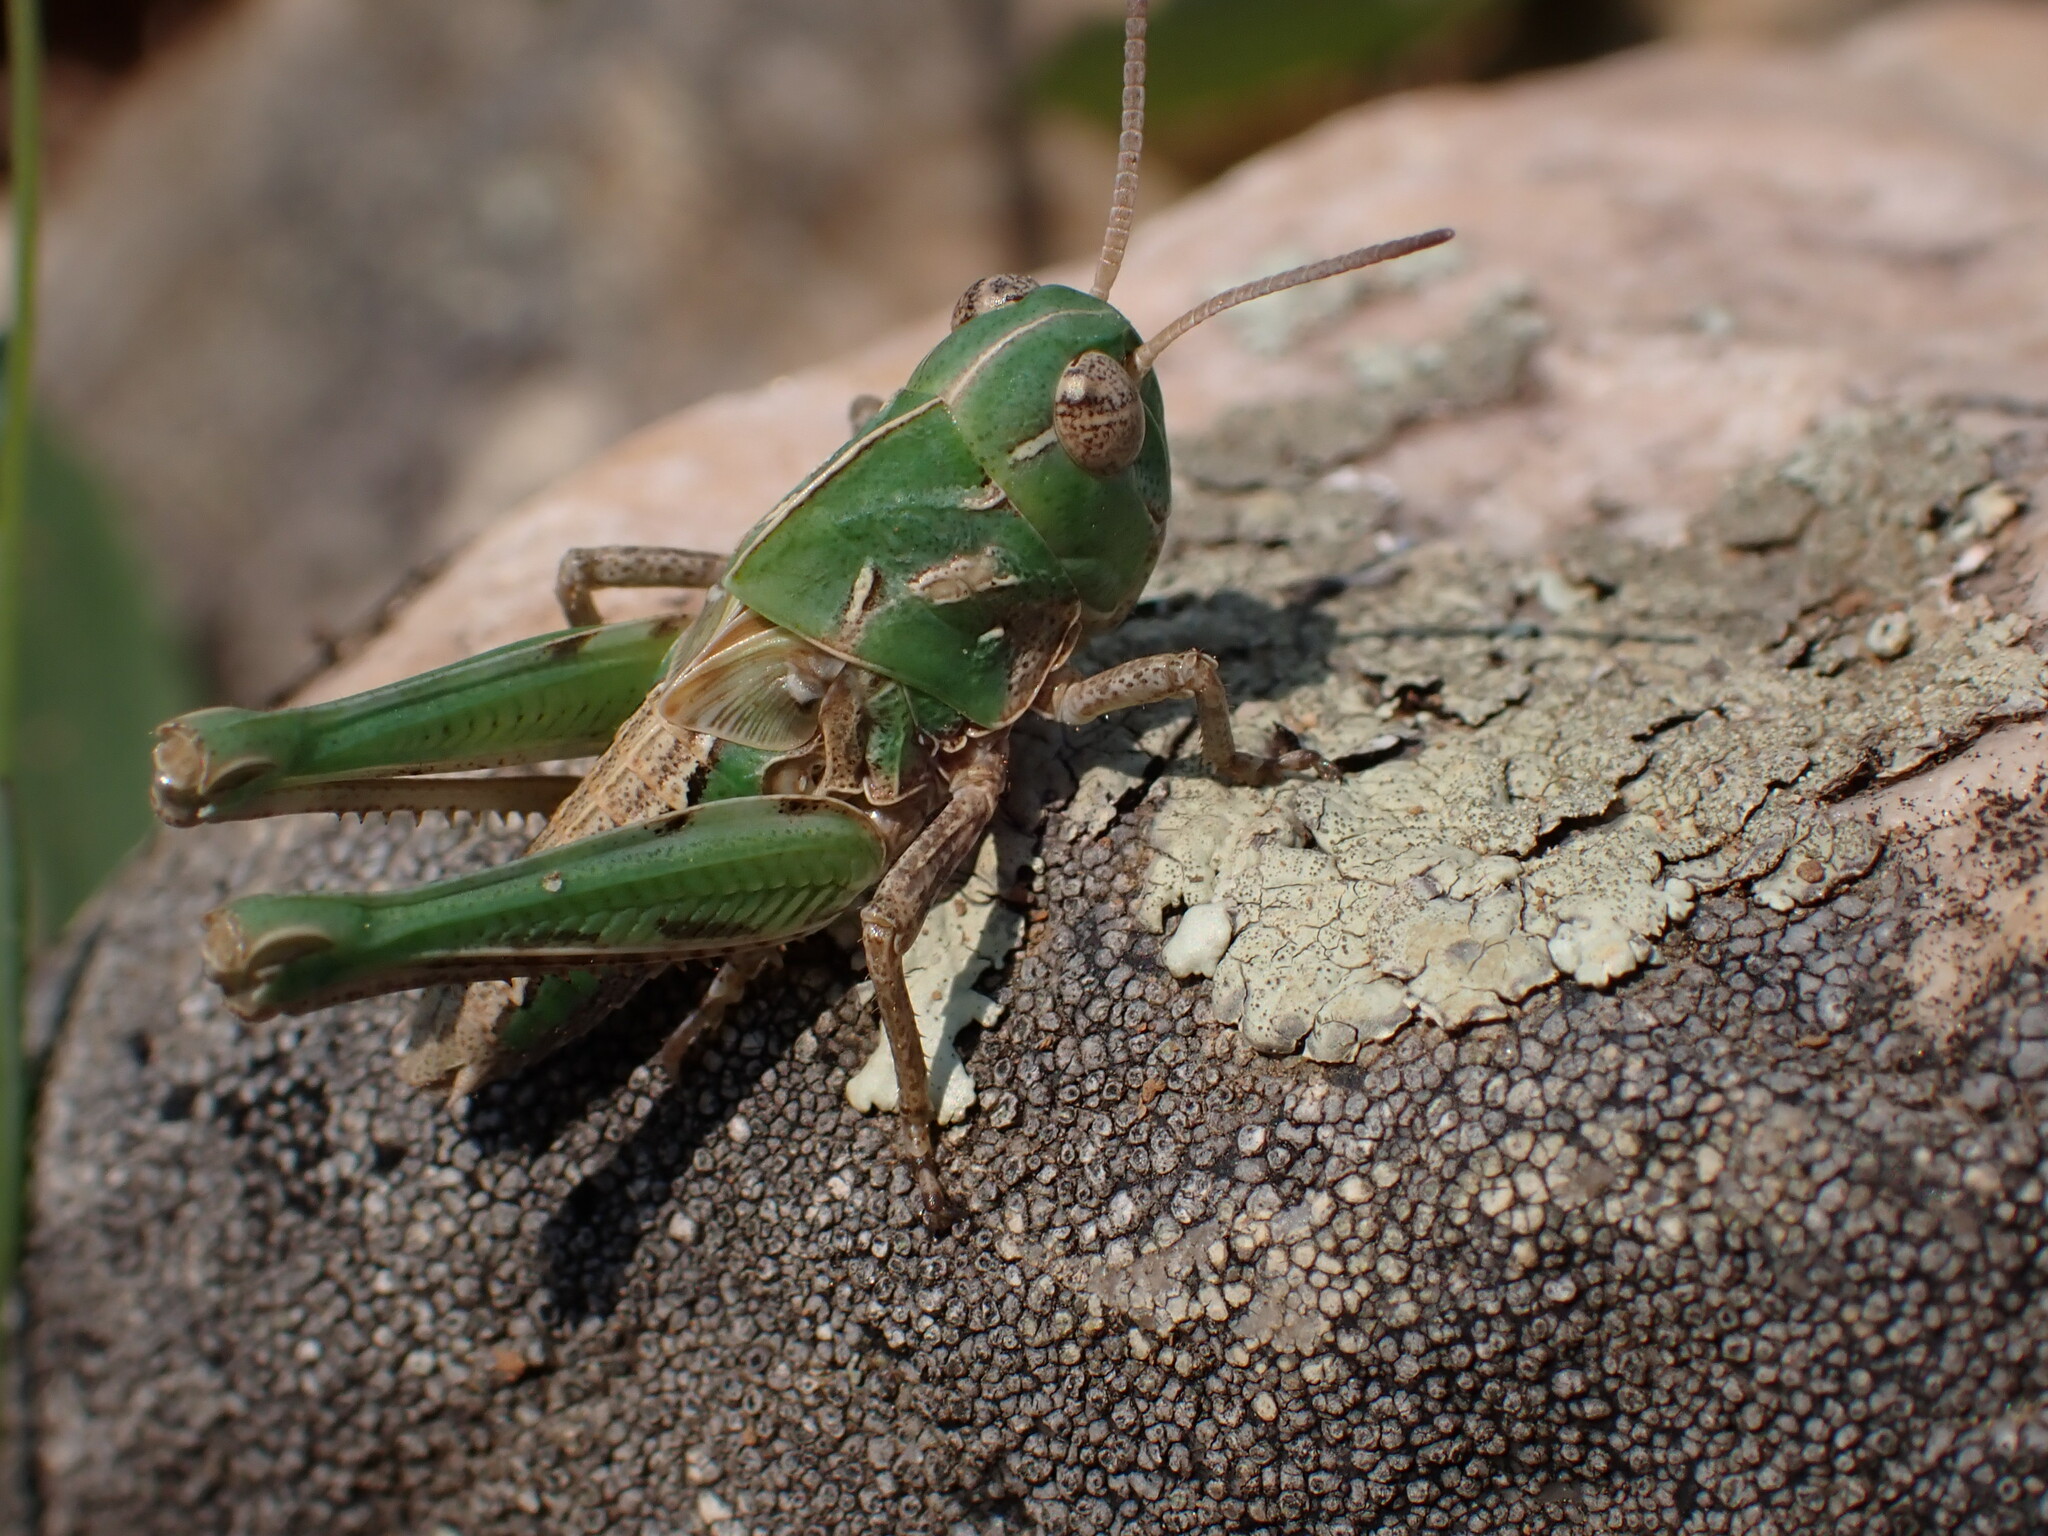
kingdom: Animalia
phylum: Arthropoda
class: Insecta
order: Orthoptera
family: Acrididae
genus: Oedaleus
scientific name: Oedaleus decorus
